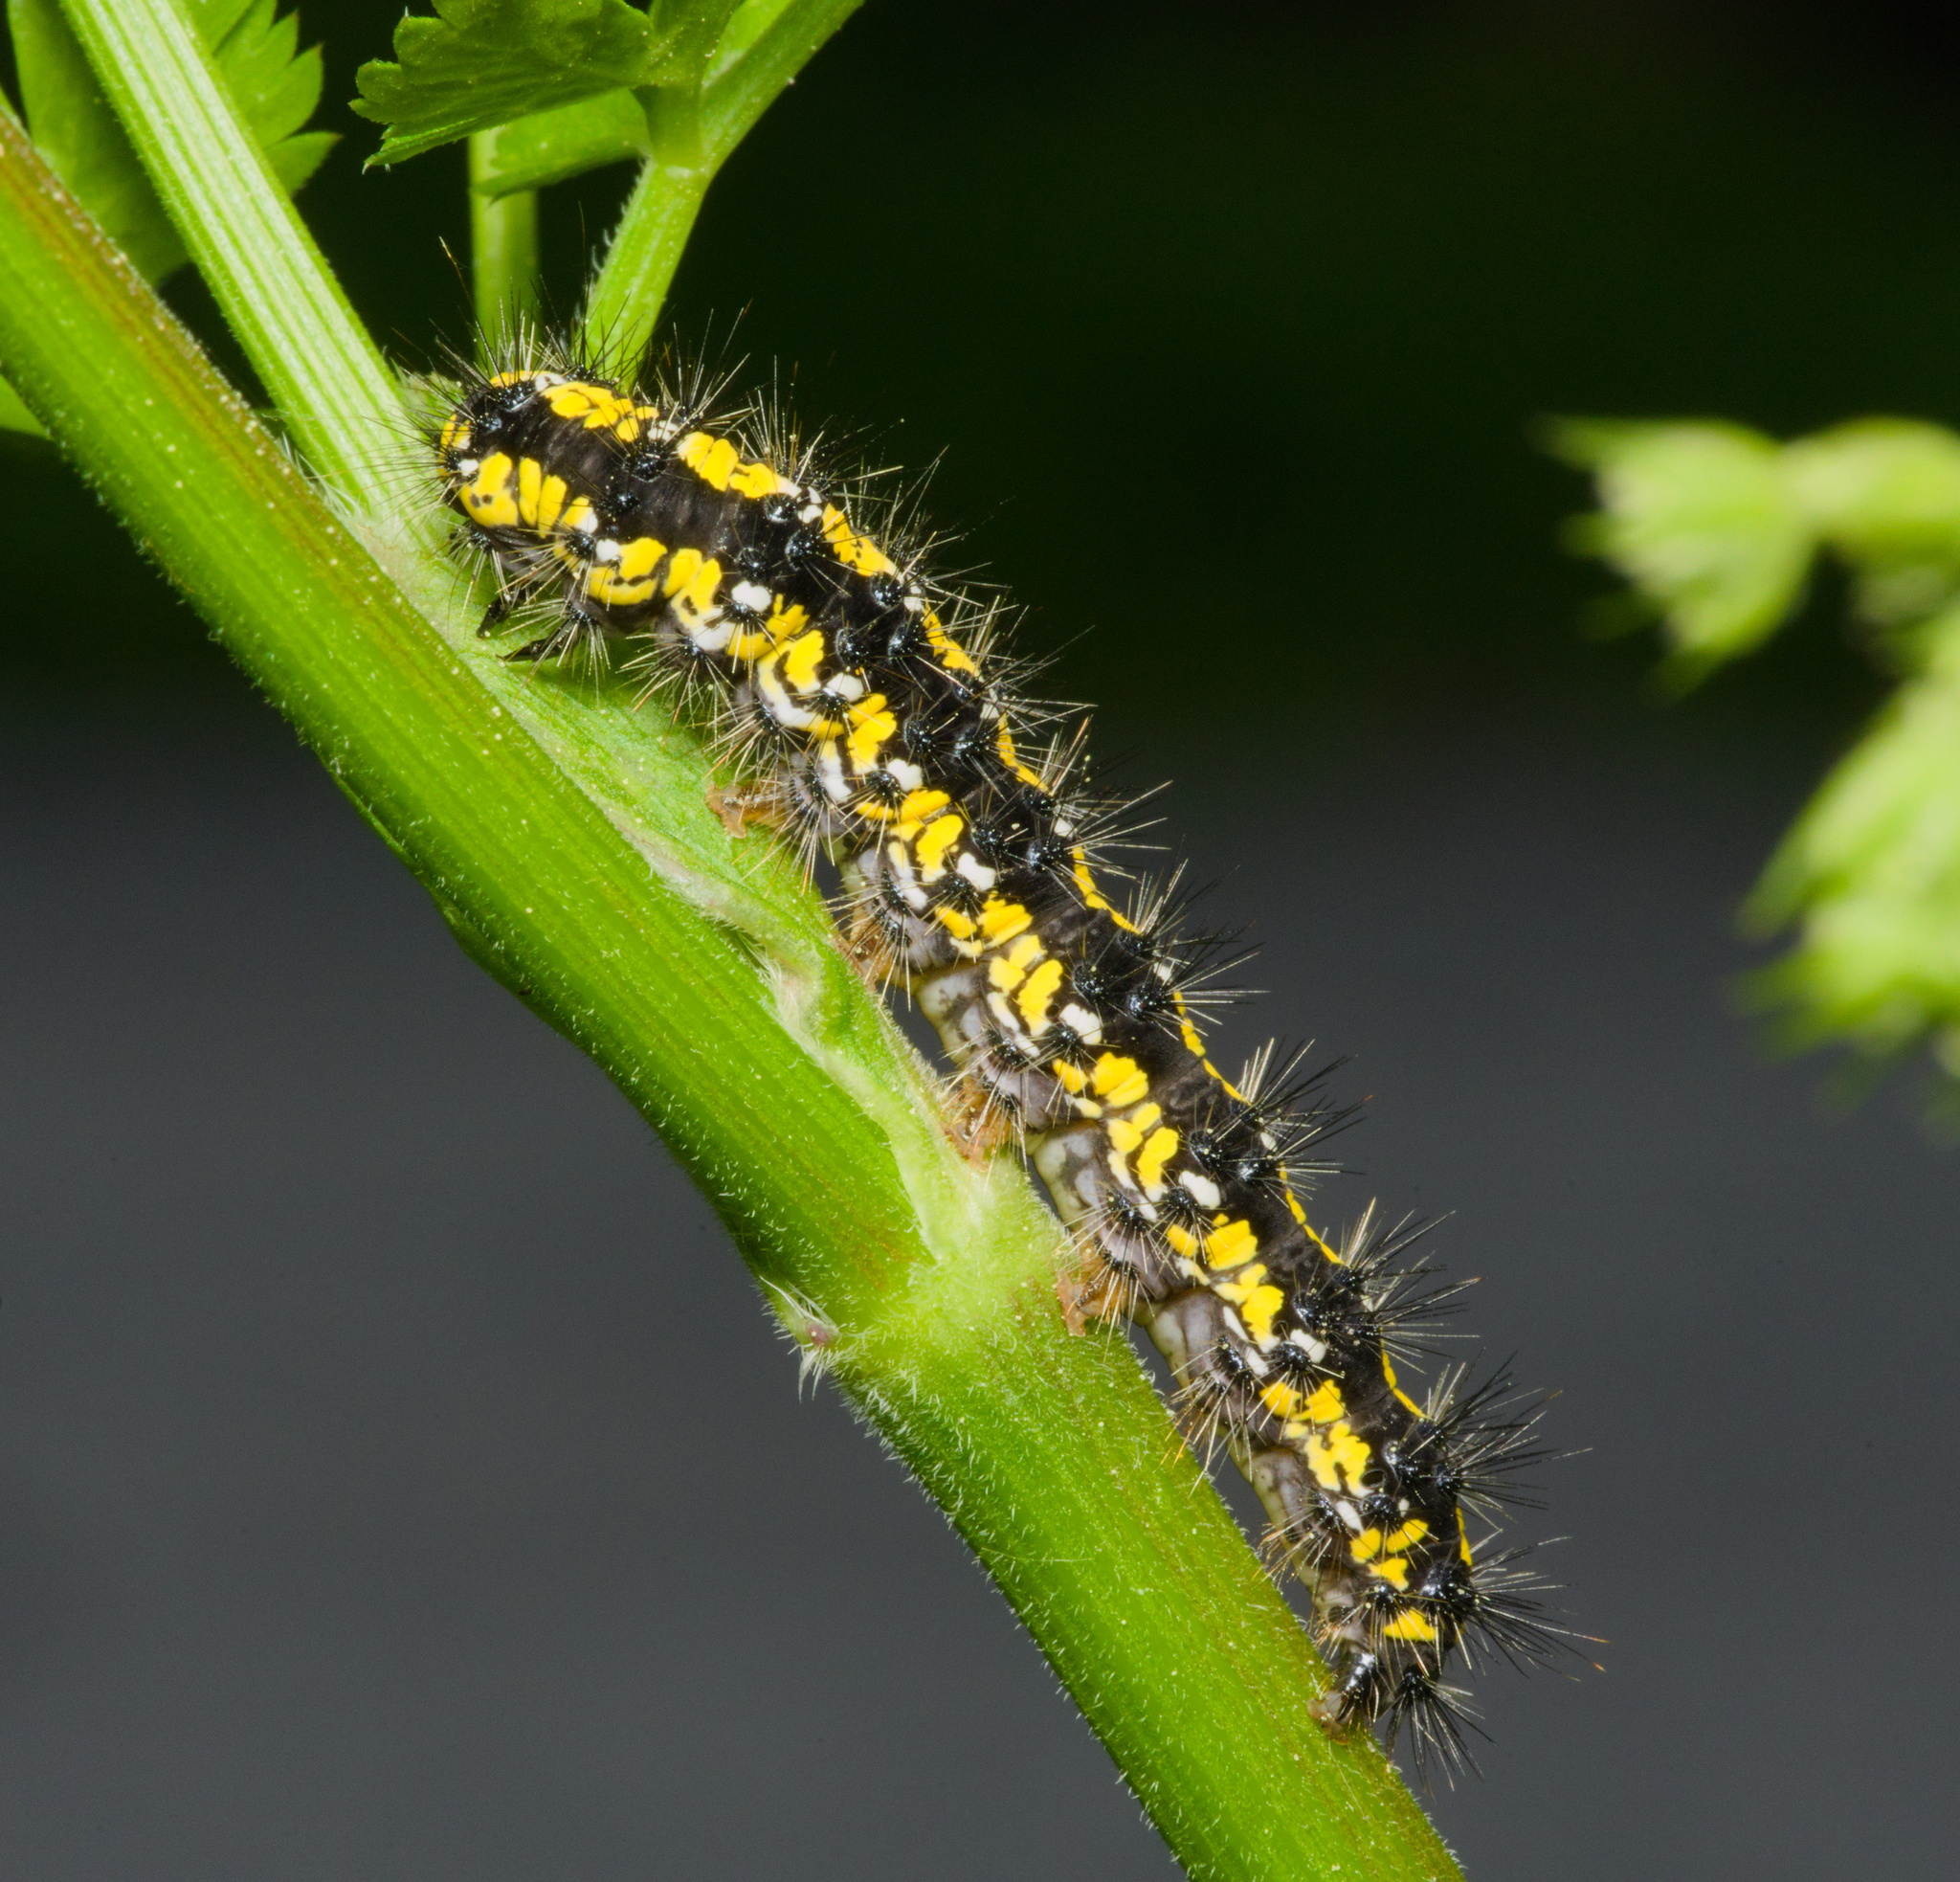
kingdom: Animalia
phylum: Arthropoda
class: Insecta
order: Lepidoptera
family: Erebidae
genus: Callimorpha
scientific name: Callimorpha dominula
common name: Scarlet tiger
